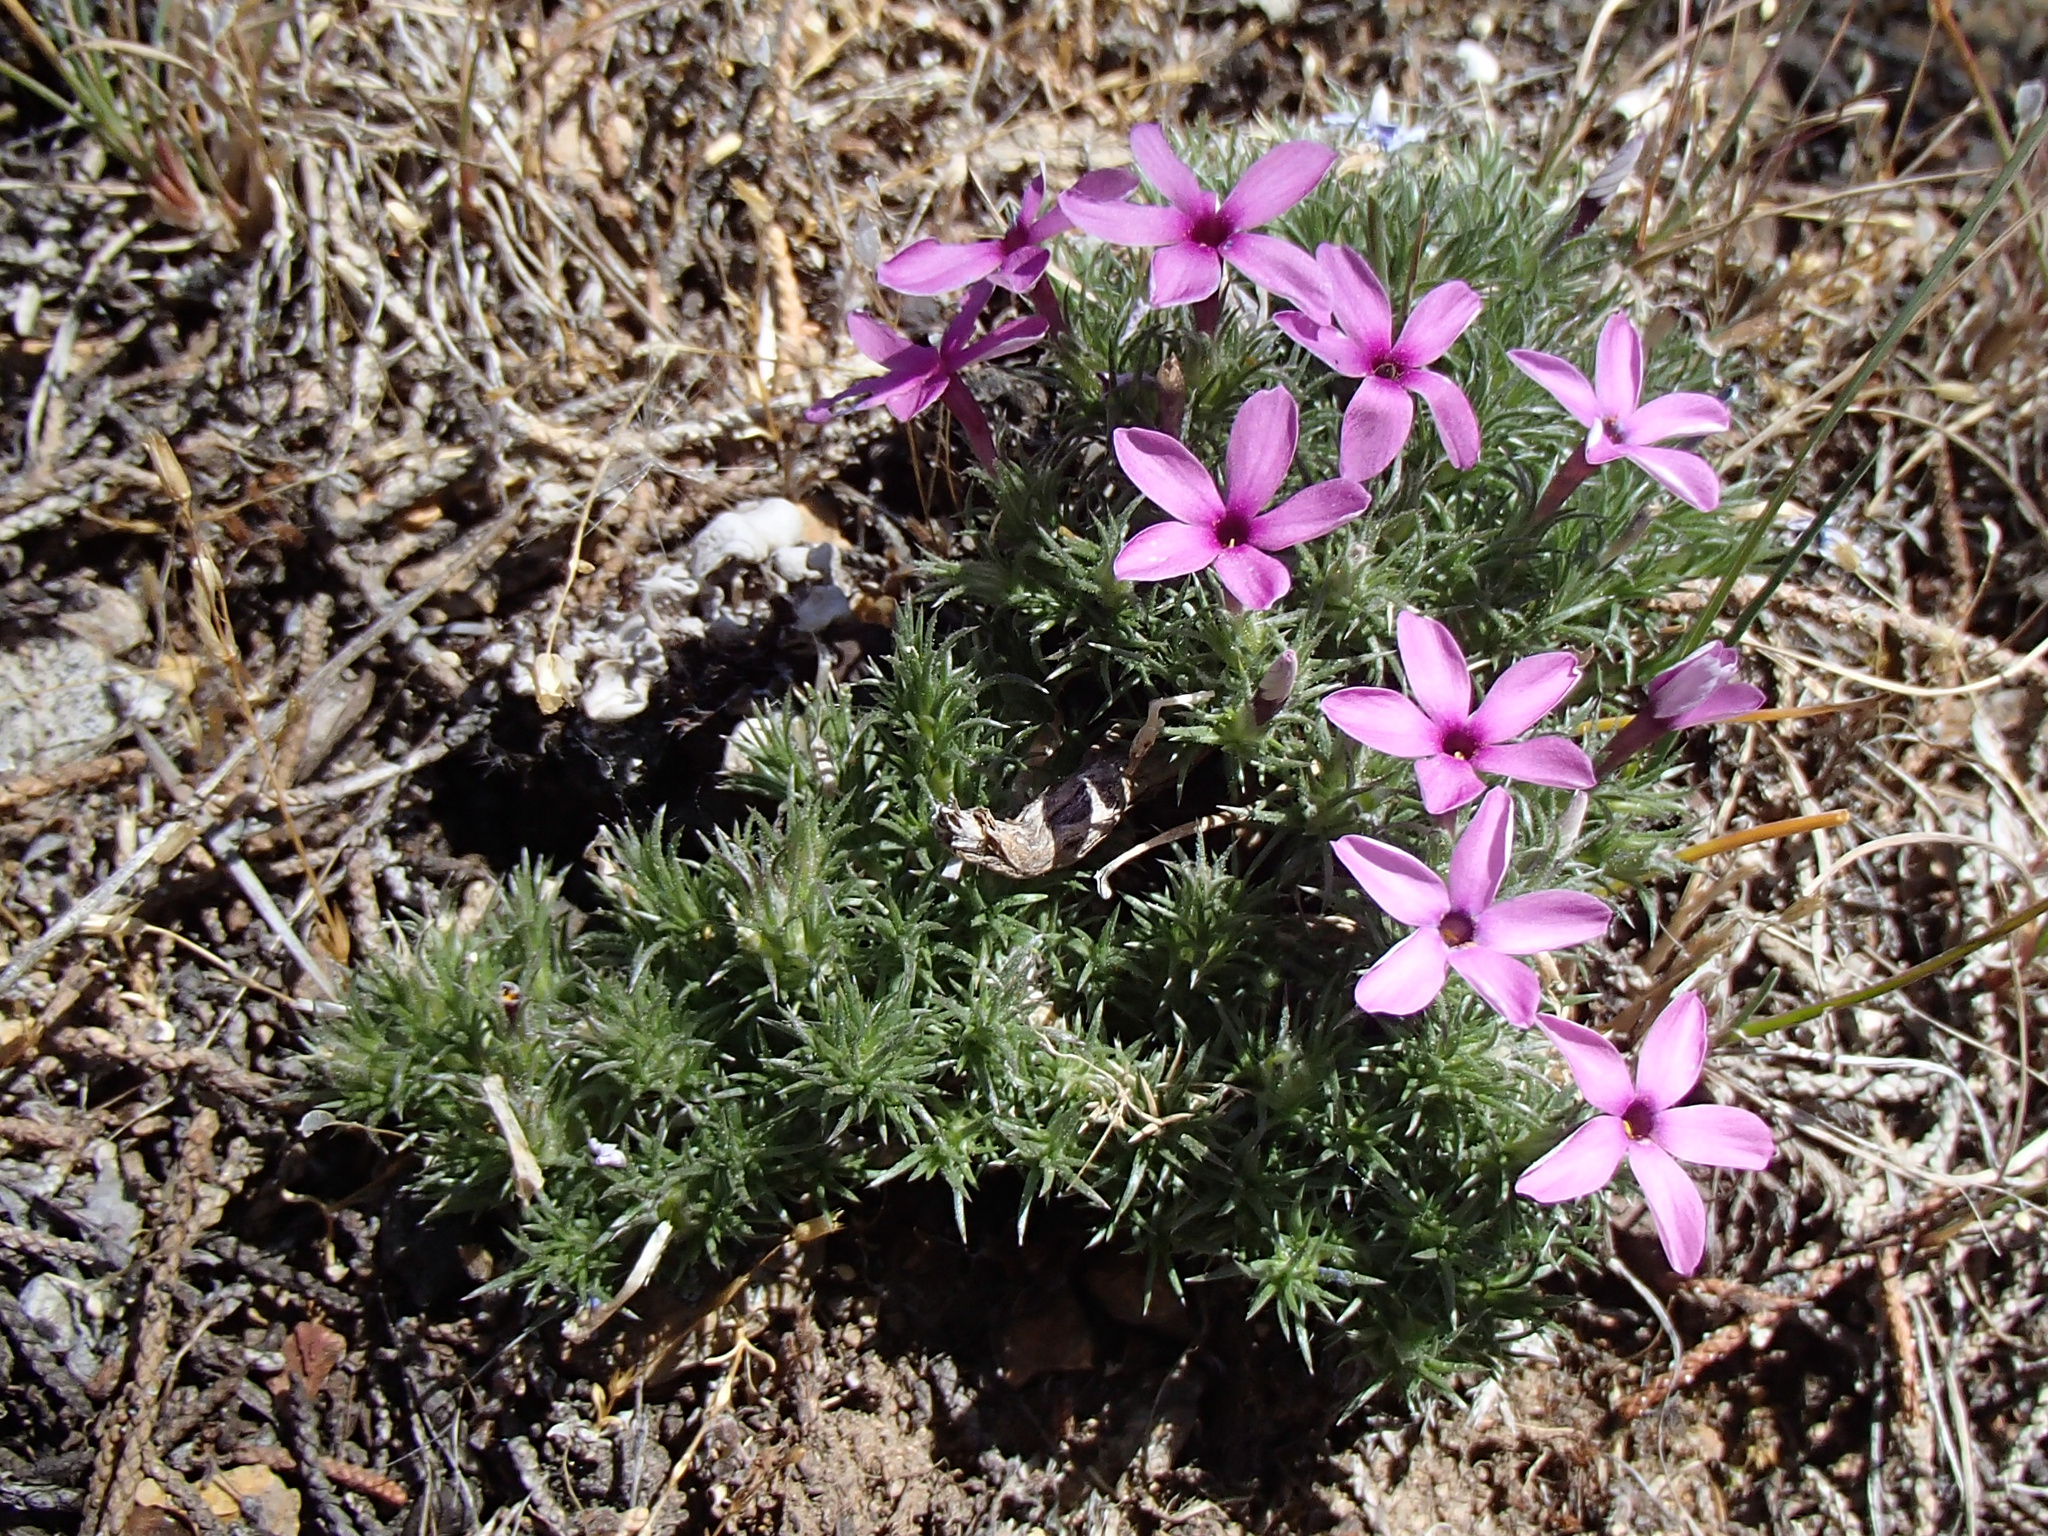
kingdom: Plantae
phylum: Tracheophyta
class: Magnoliopsida
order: Ericales
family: Polemoniaceae
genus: Phlox
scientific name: Phlox douglasii
